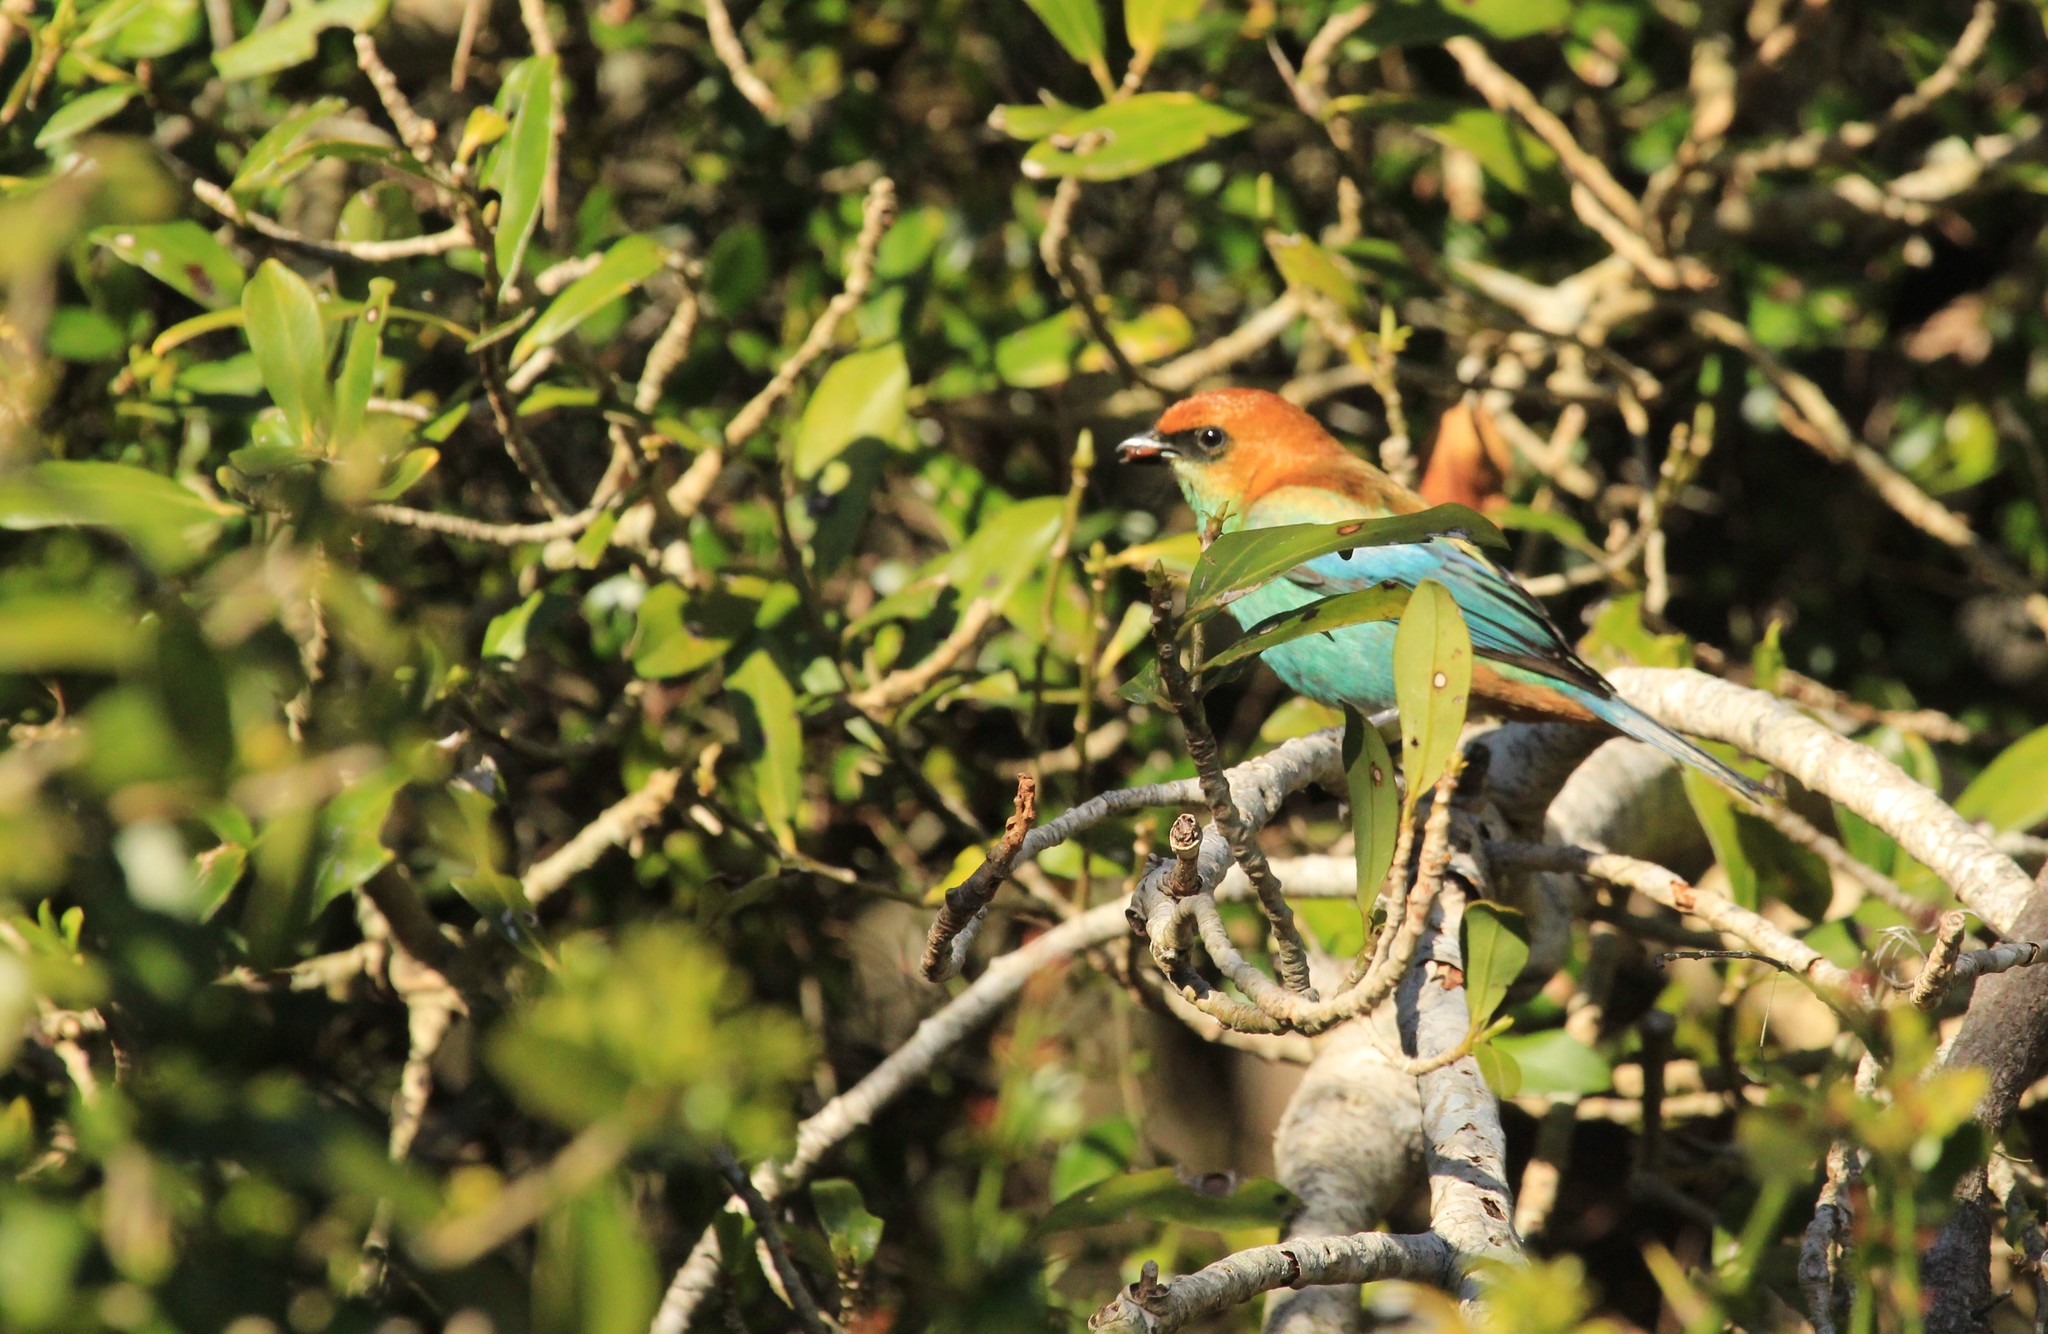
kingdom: Animalia
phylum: Chordata
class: Aves
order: Passeriformes
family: Thraupidae
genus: Stilpnia
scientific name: Stilpnia preciosa
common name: Chestnut-backed tanager
